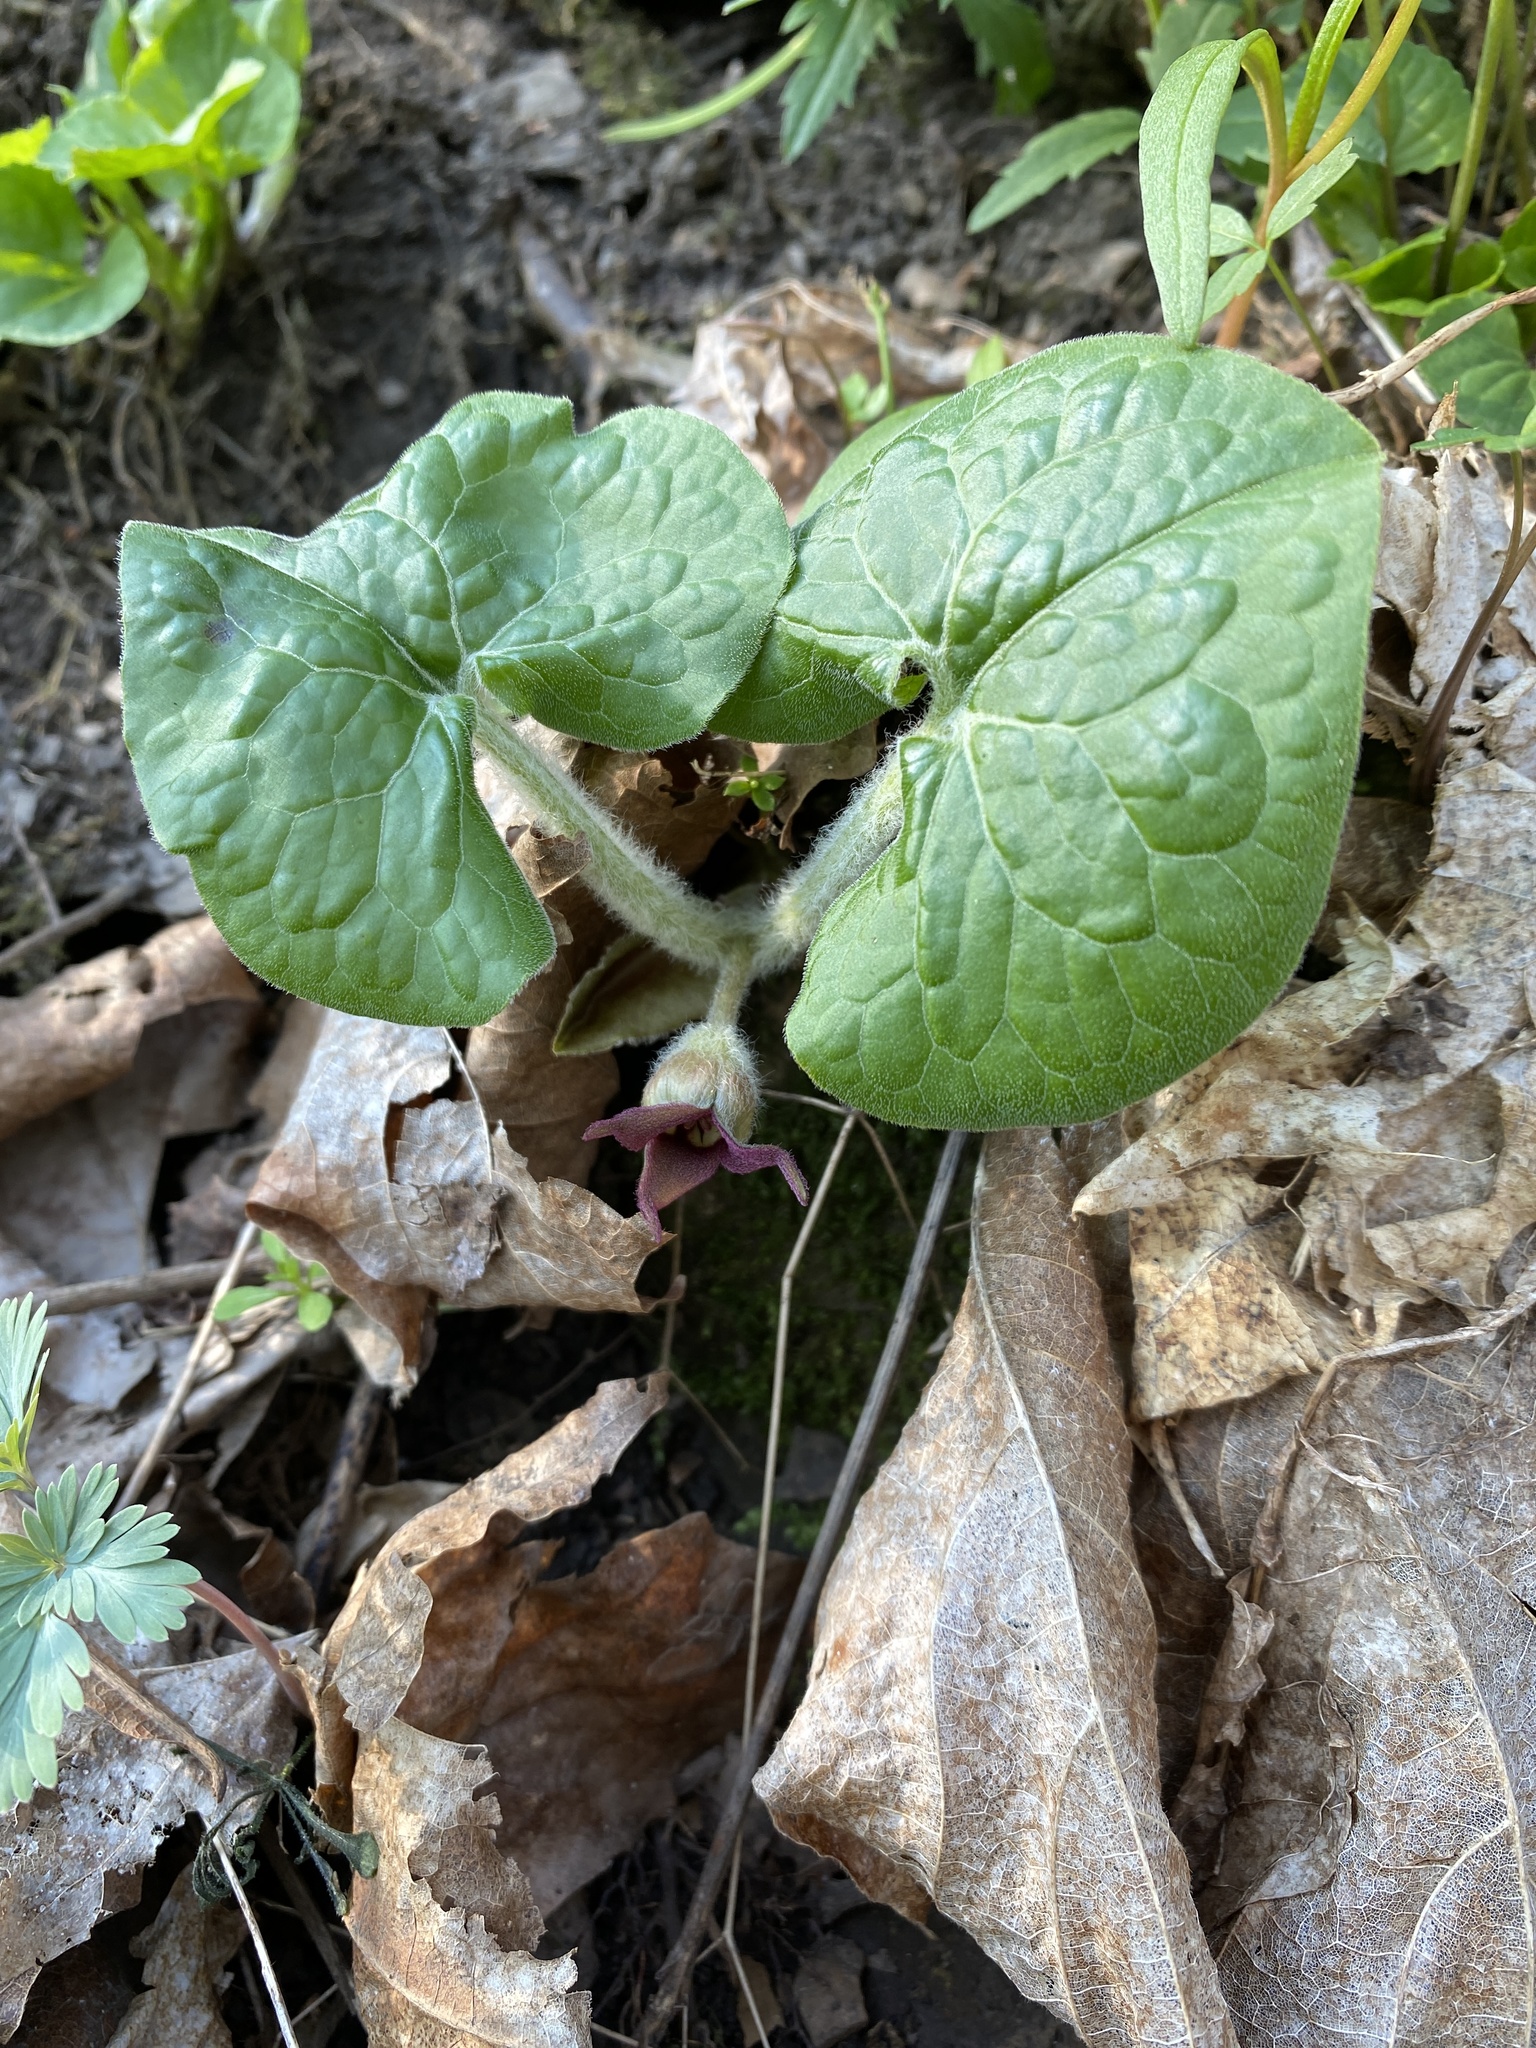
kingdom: Plantae
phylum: Tracheophyta
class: Magnoliopsida
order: Piperales
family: Aristolochiaceae
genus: Asarum
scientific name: Asarum canadense
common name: Wild ginger
